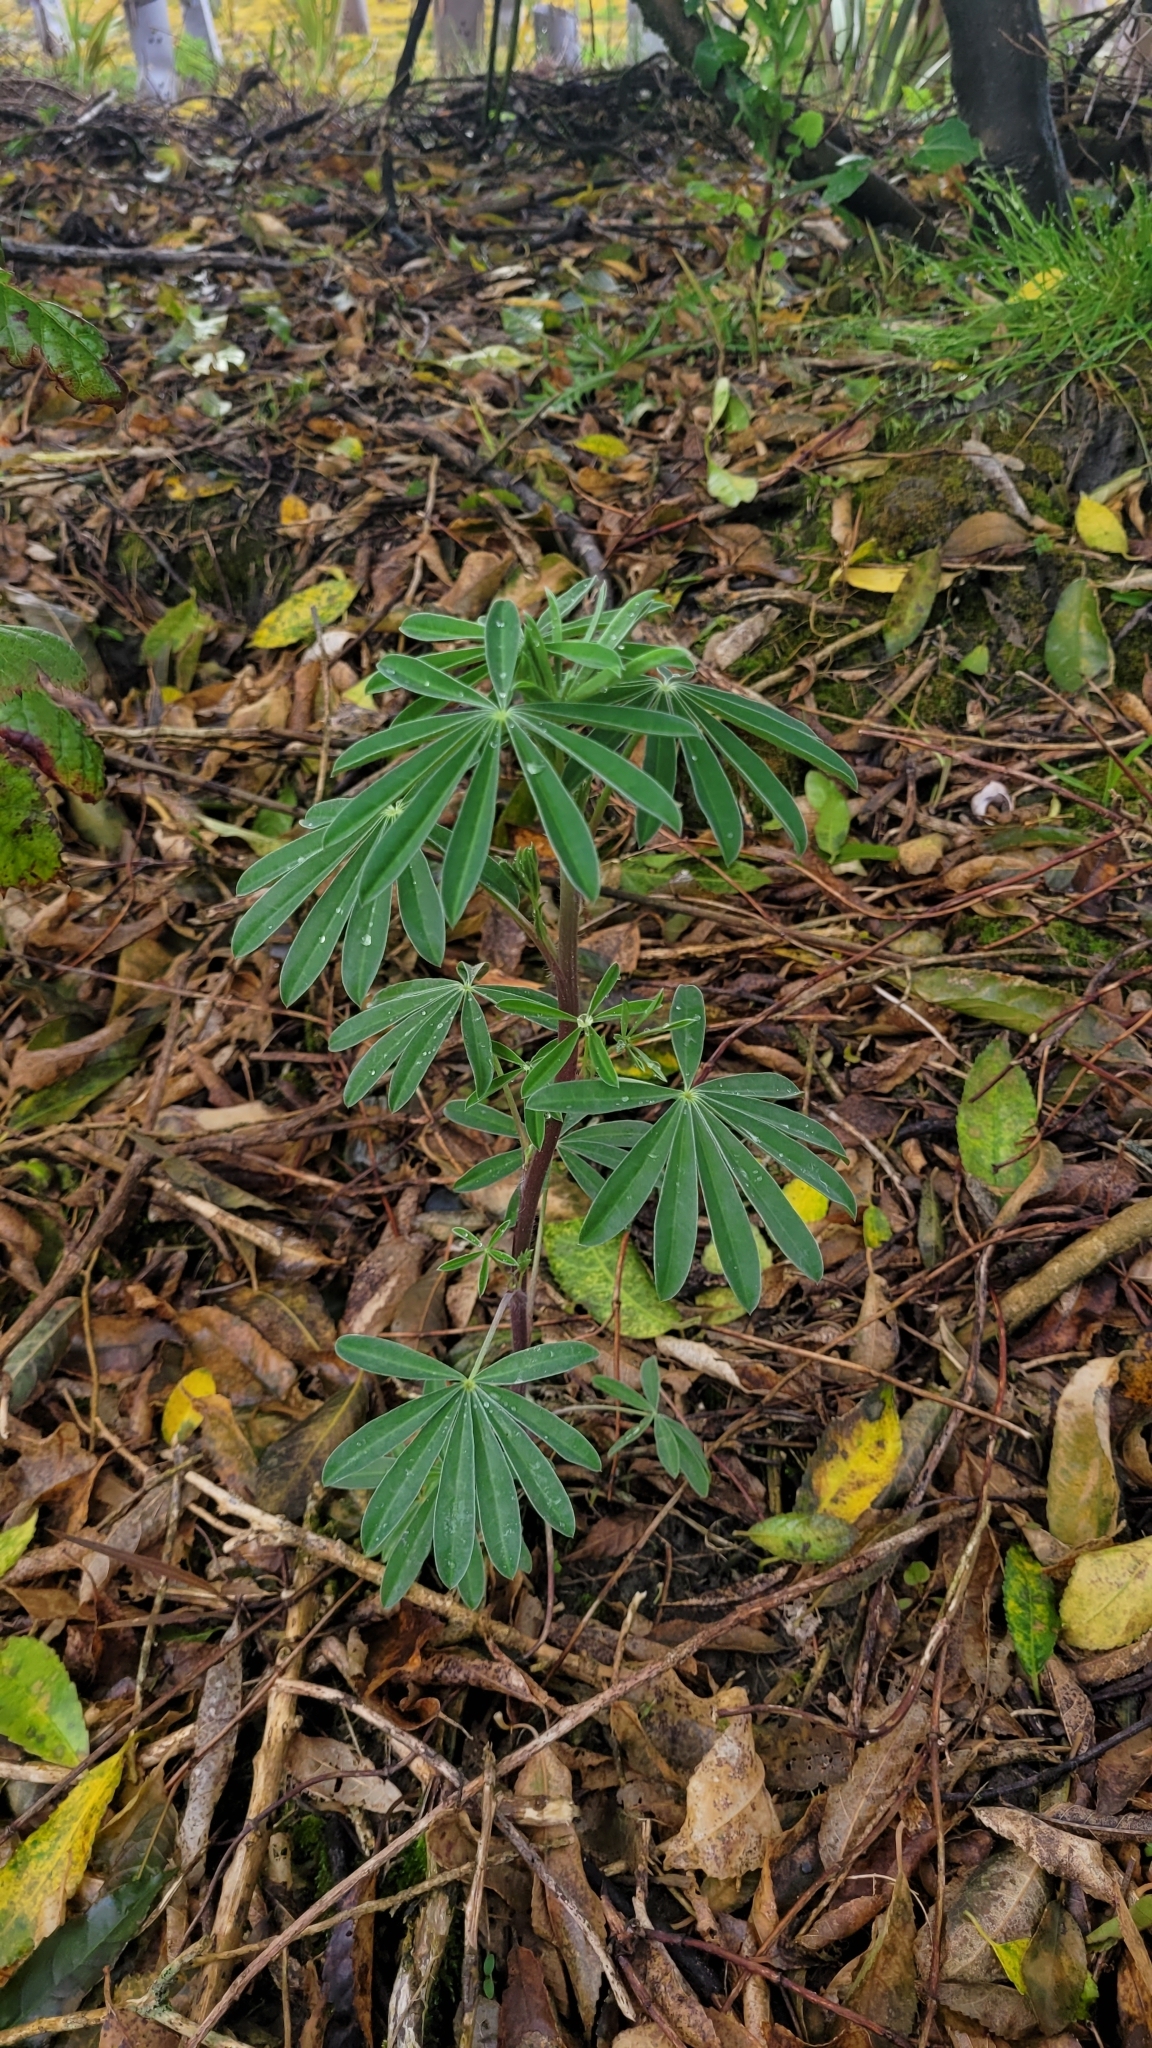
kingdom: Plantae
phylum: Tracheophyta
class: Magnoliopsida
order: Fabales
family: Fabaceae
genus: Lupinus
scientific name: Lupinus arboreus
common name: Yellow bush lupine
